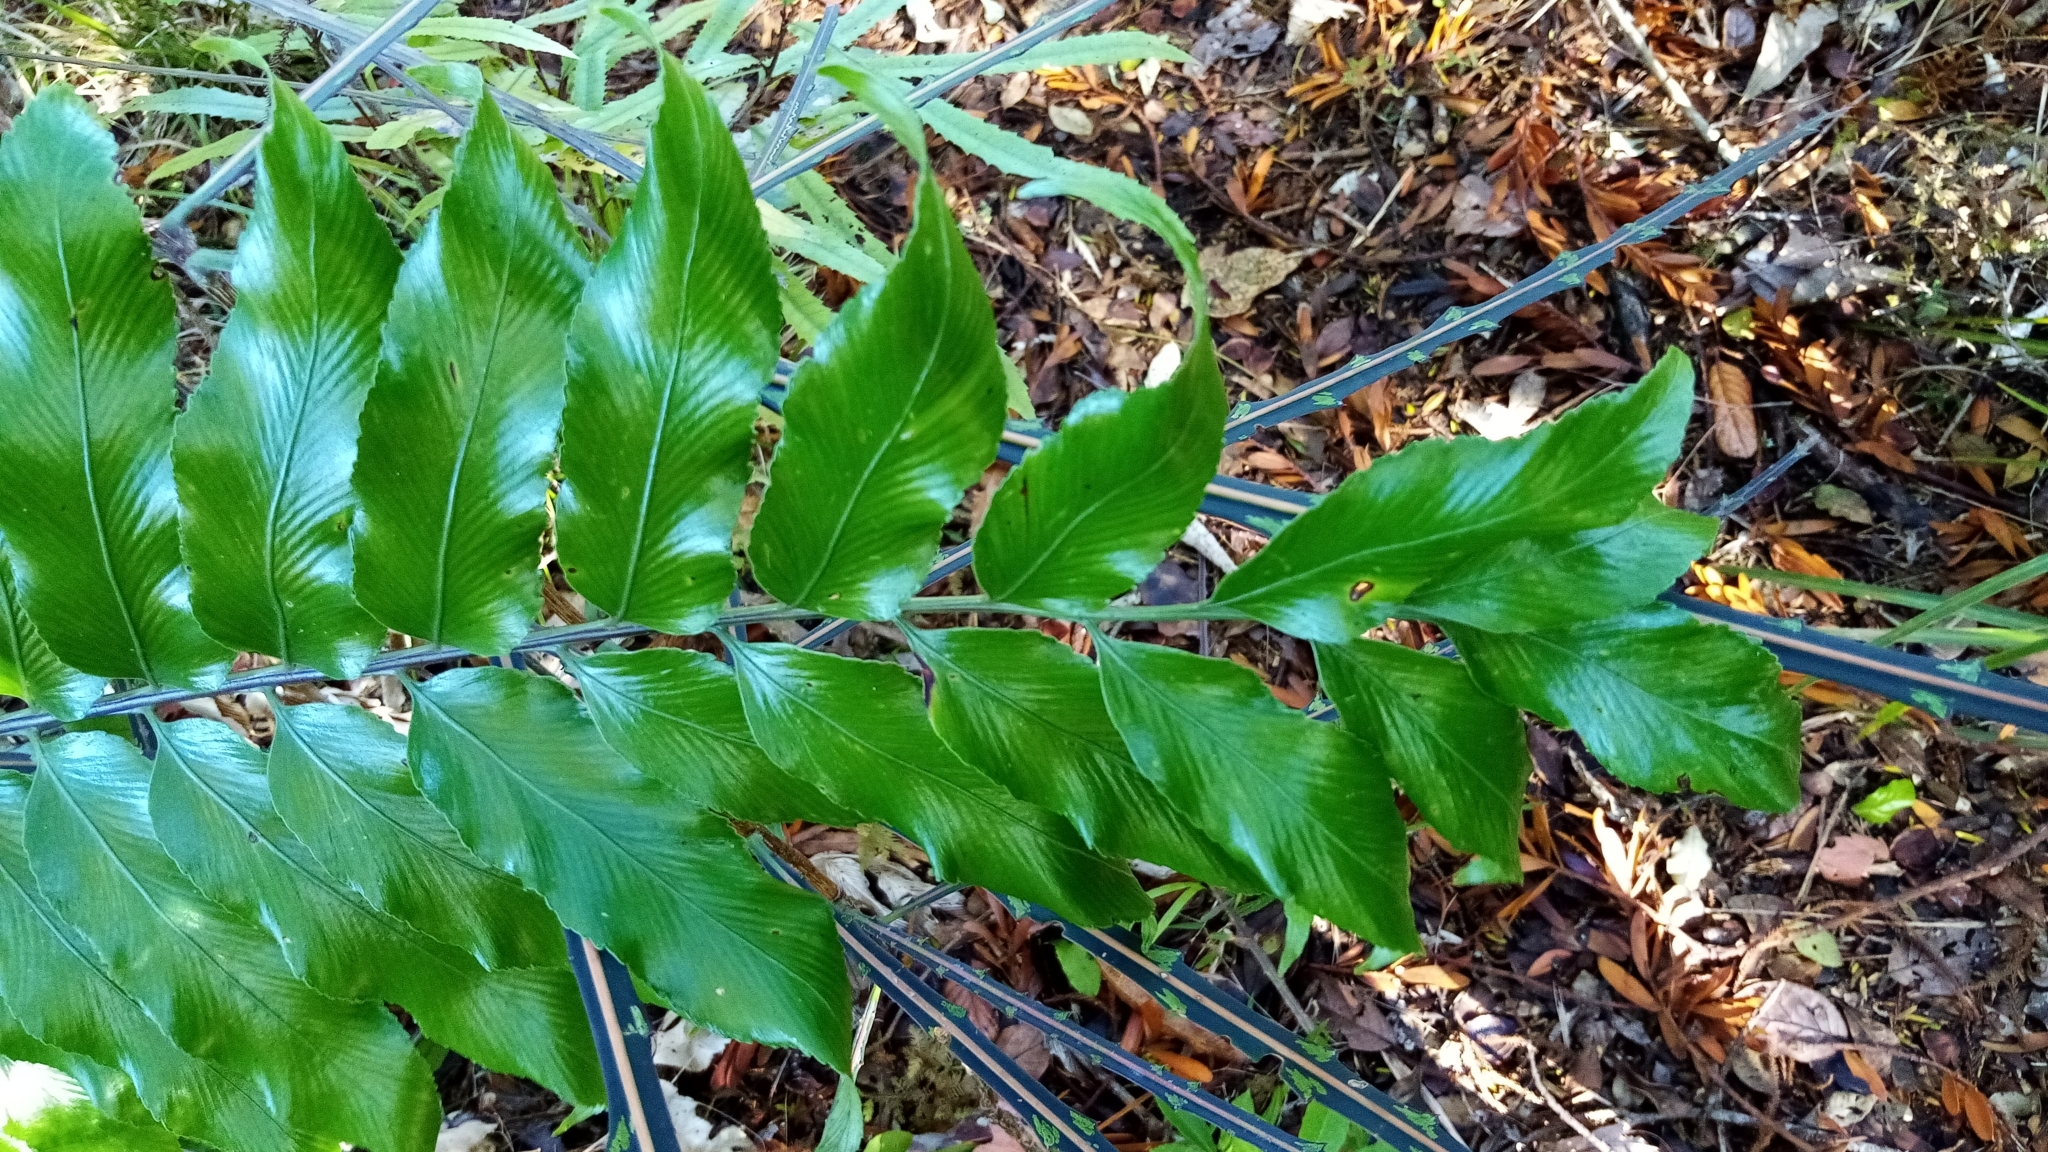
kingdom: Plantae
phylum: Tracheophyta
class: Polypodiopsida
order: Polypodiales
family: Aspleniaceae
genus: Asplenium
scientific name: Asplenium oblongifolium
